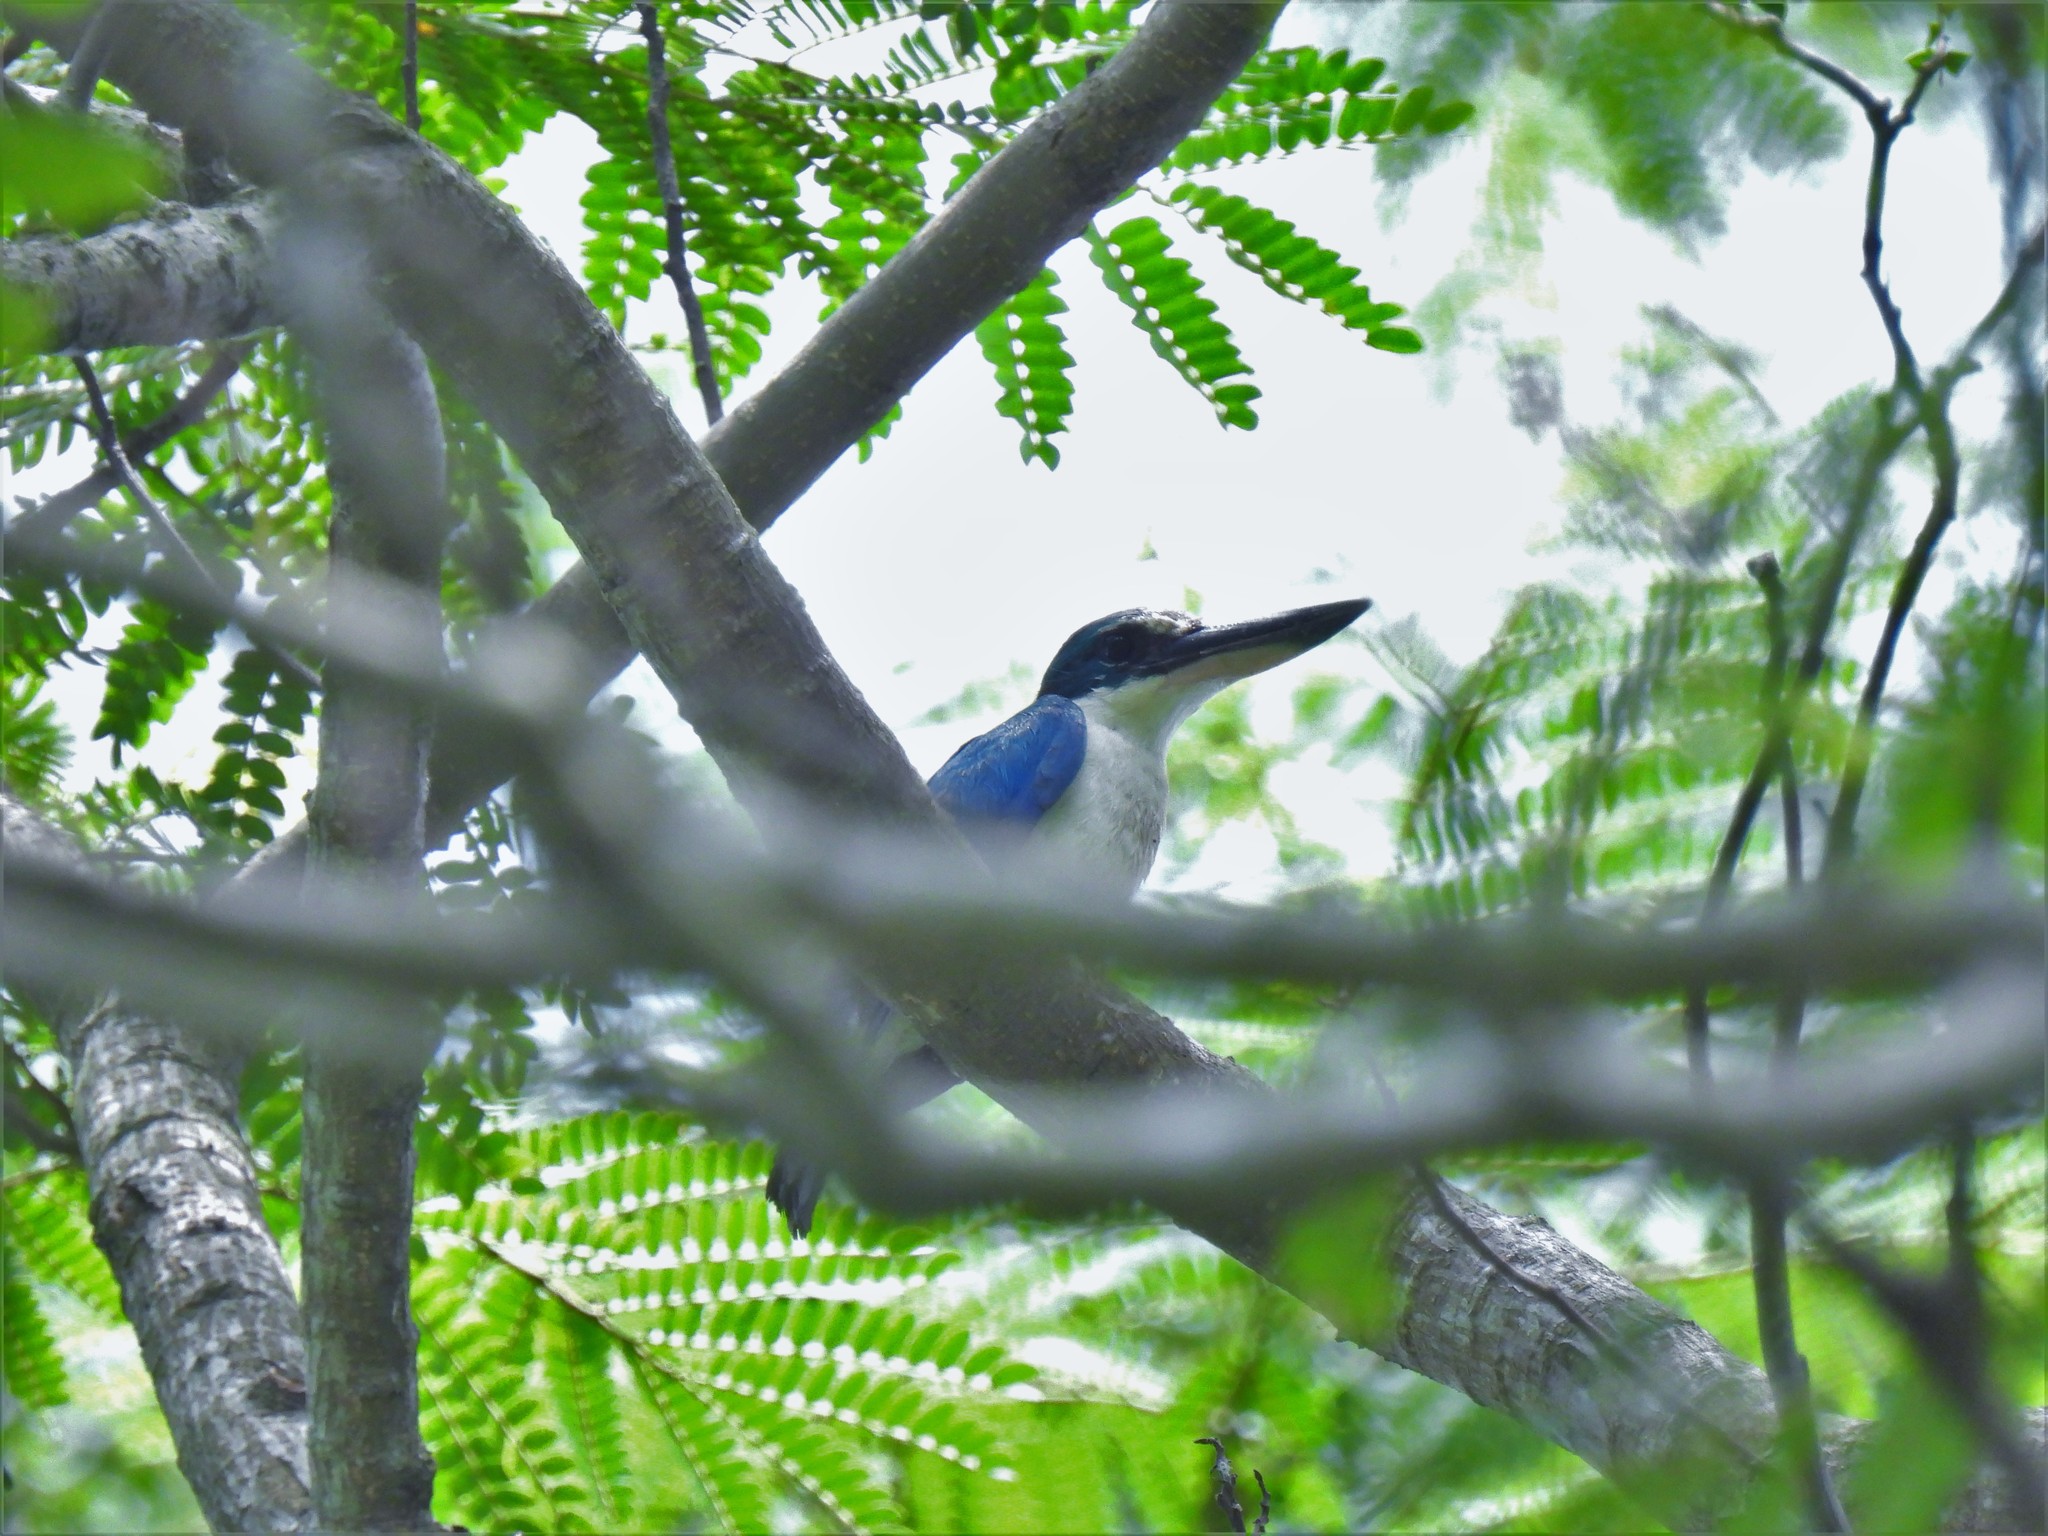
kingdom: Animalia
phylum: Chordata
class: Aves
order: Coraciiformes
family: Alcedinidae
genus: Todiramphus
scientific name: Todiramphus chloris
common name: Collared kingfisher
